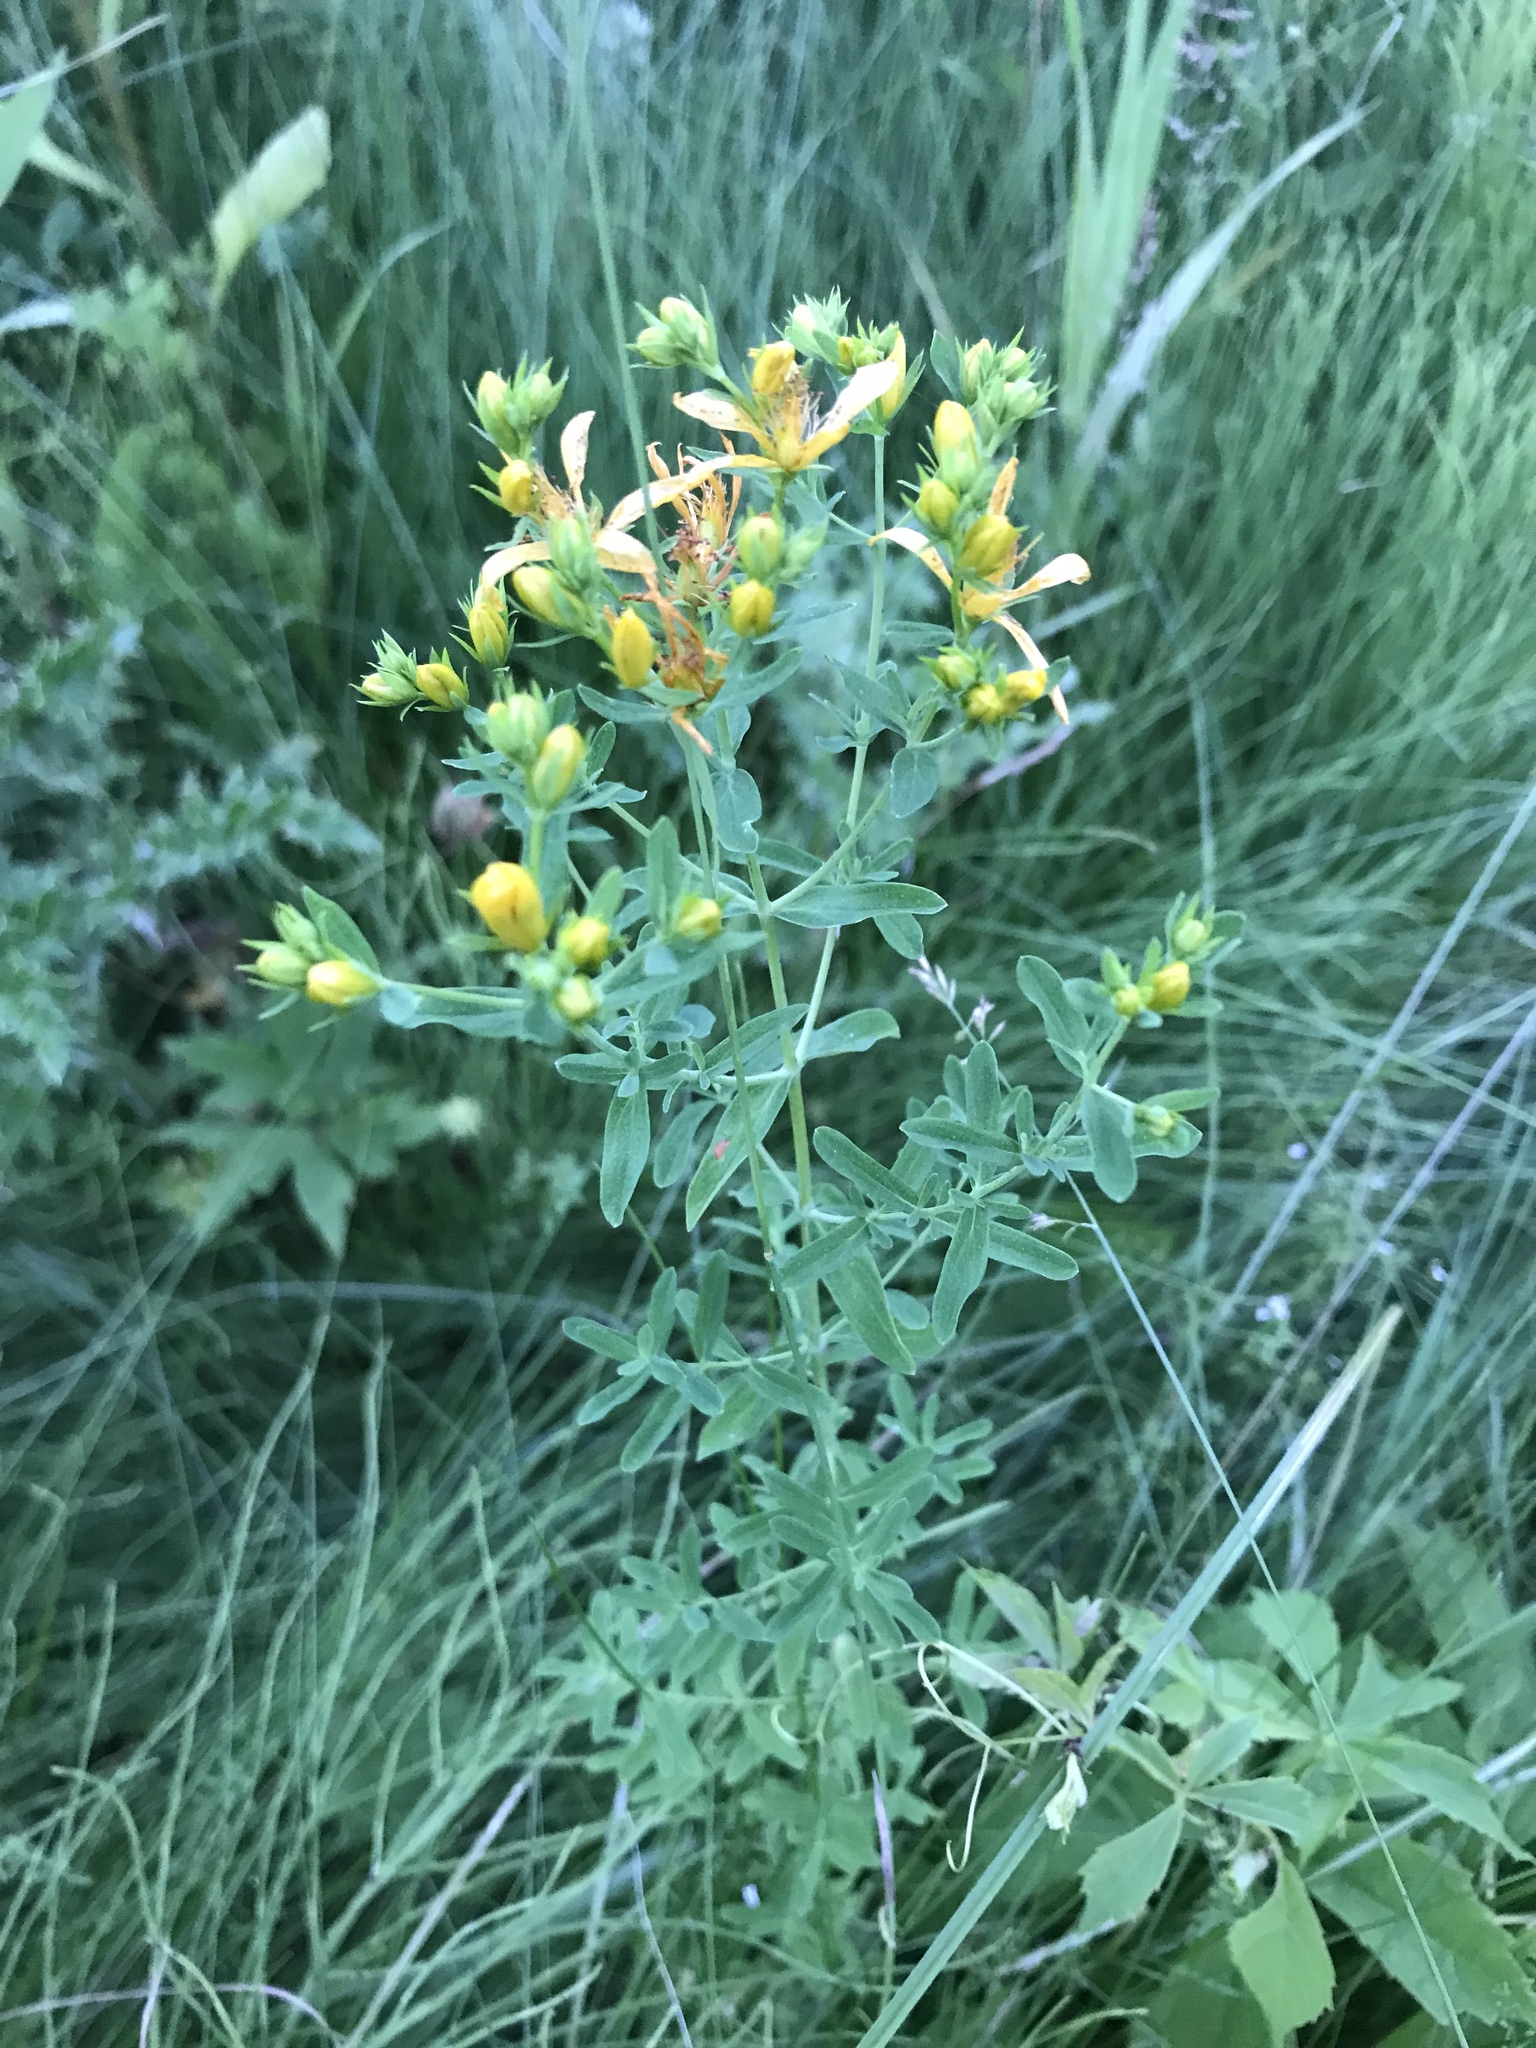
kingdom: Plantae
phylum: Tracheophyta
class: Magnoliopsida
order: Malpighiales
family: Hypericaceae
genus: Hypericum
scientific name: Hypericum perforatum
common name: Common st. johnswort
